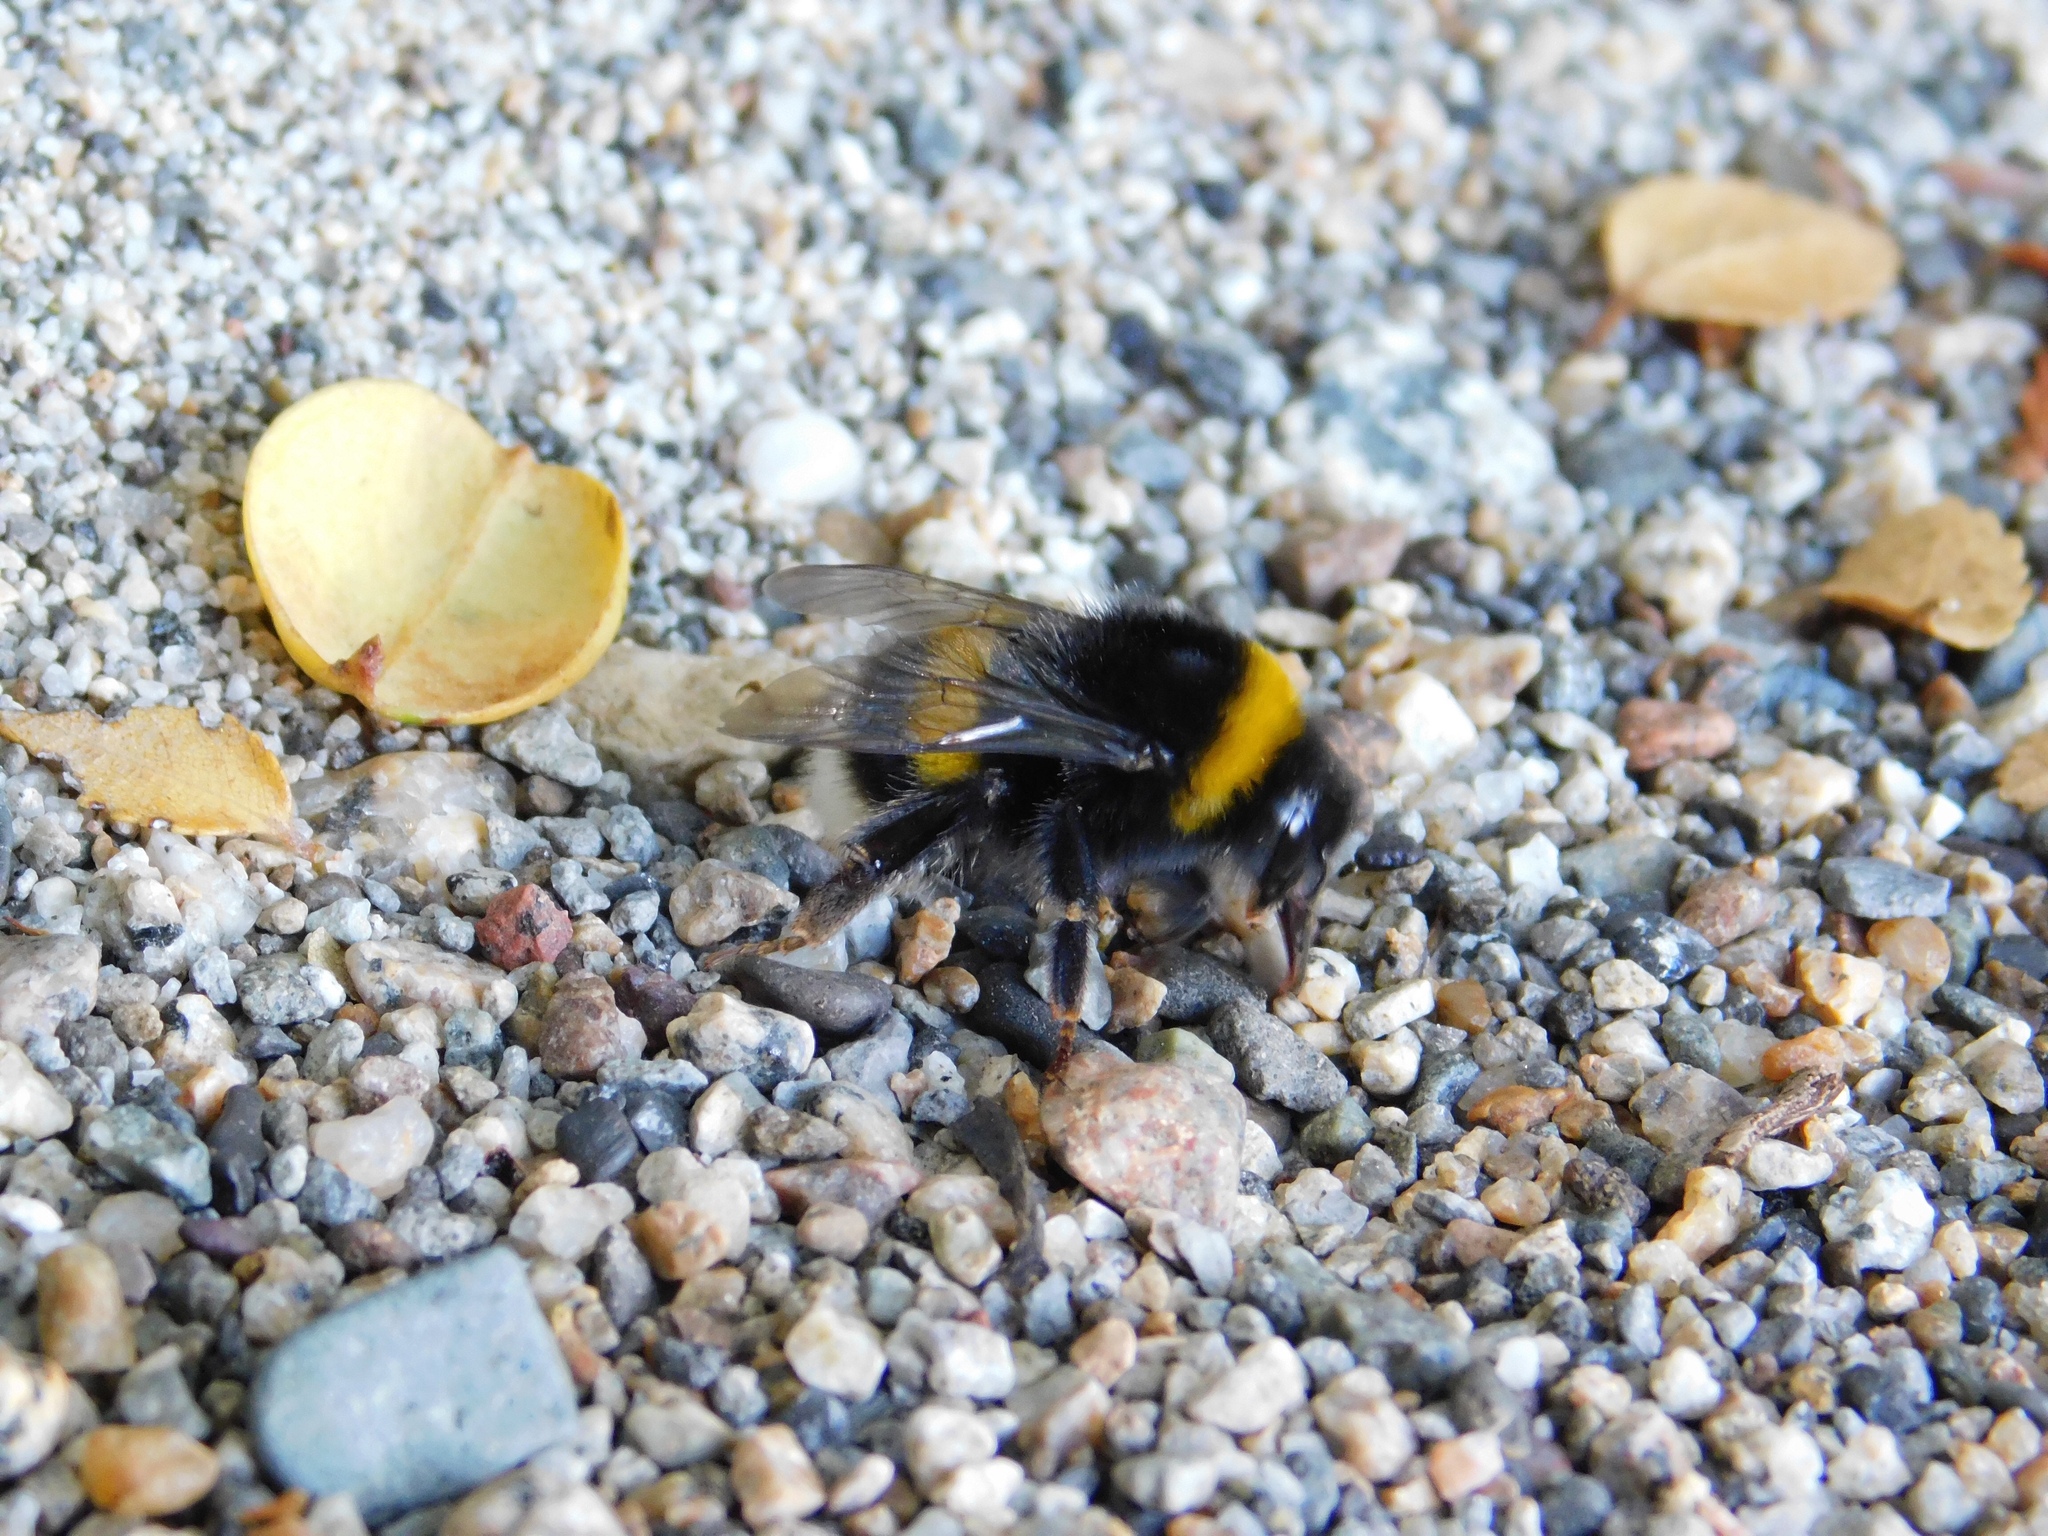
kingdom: Animalia
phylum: Arthropoda
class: Insecta
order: Hymenoptera
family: Apidae
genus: Bombus
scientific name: Bombus terrestris
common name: Buff-tailed bumblebee
